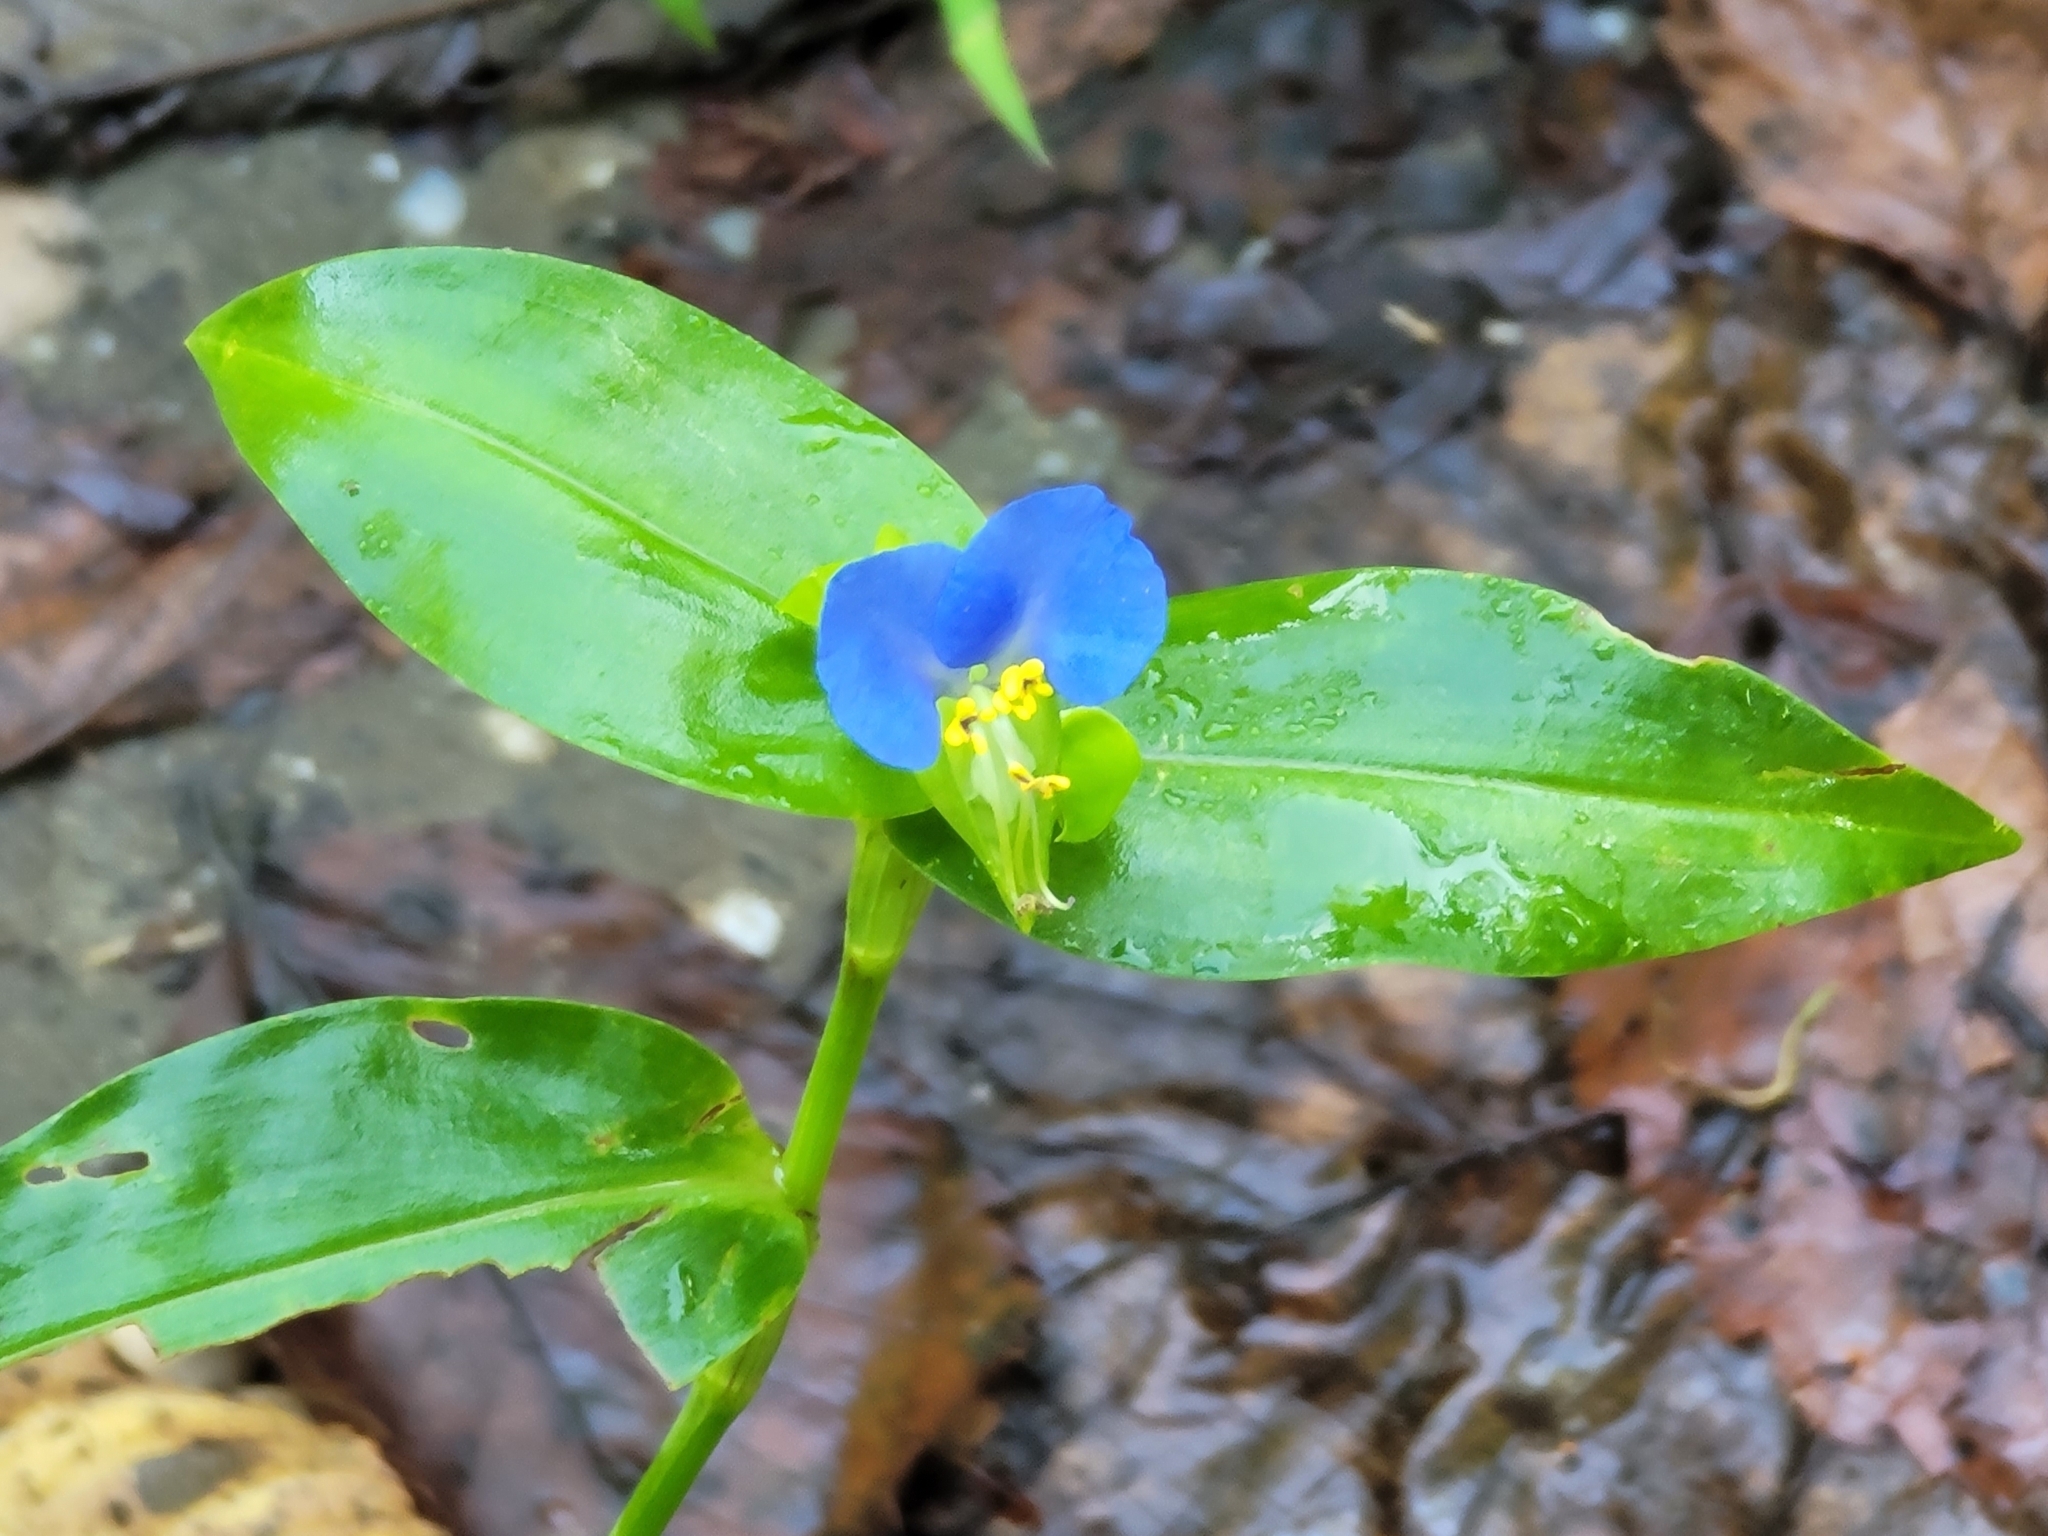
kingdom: Plantae
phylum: Tracheophyta
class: Liliopsida
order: Commelinales
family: Commelinaceae
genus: Commelina
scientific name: Commelina communis
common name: Asiatic dayflower
